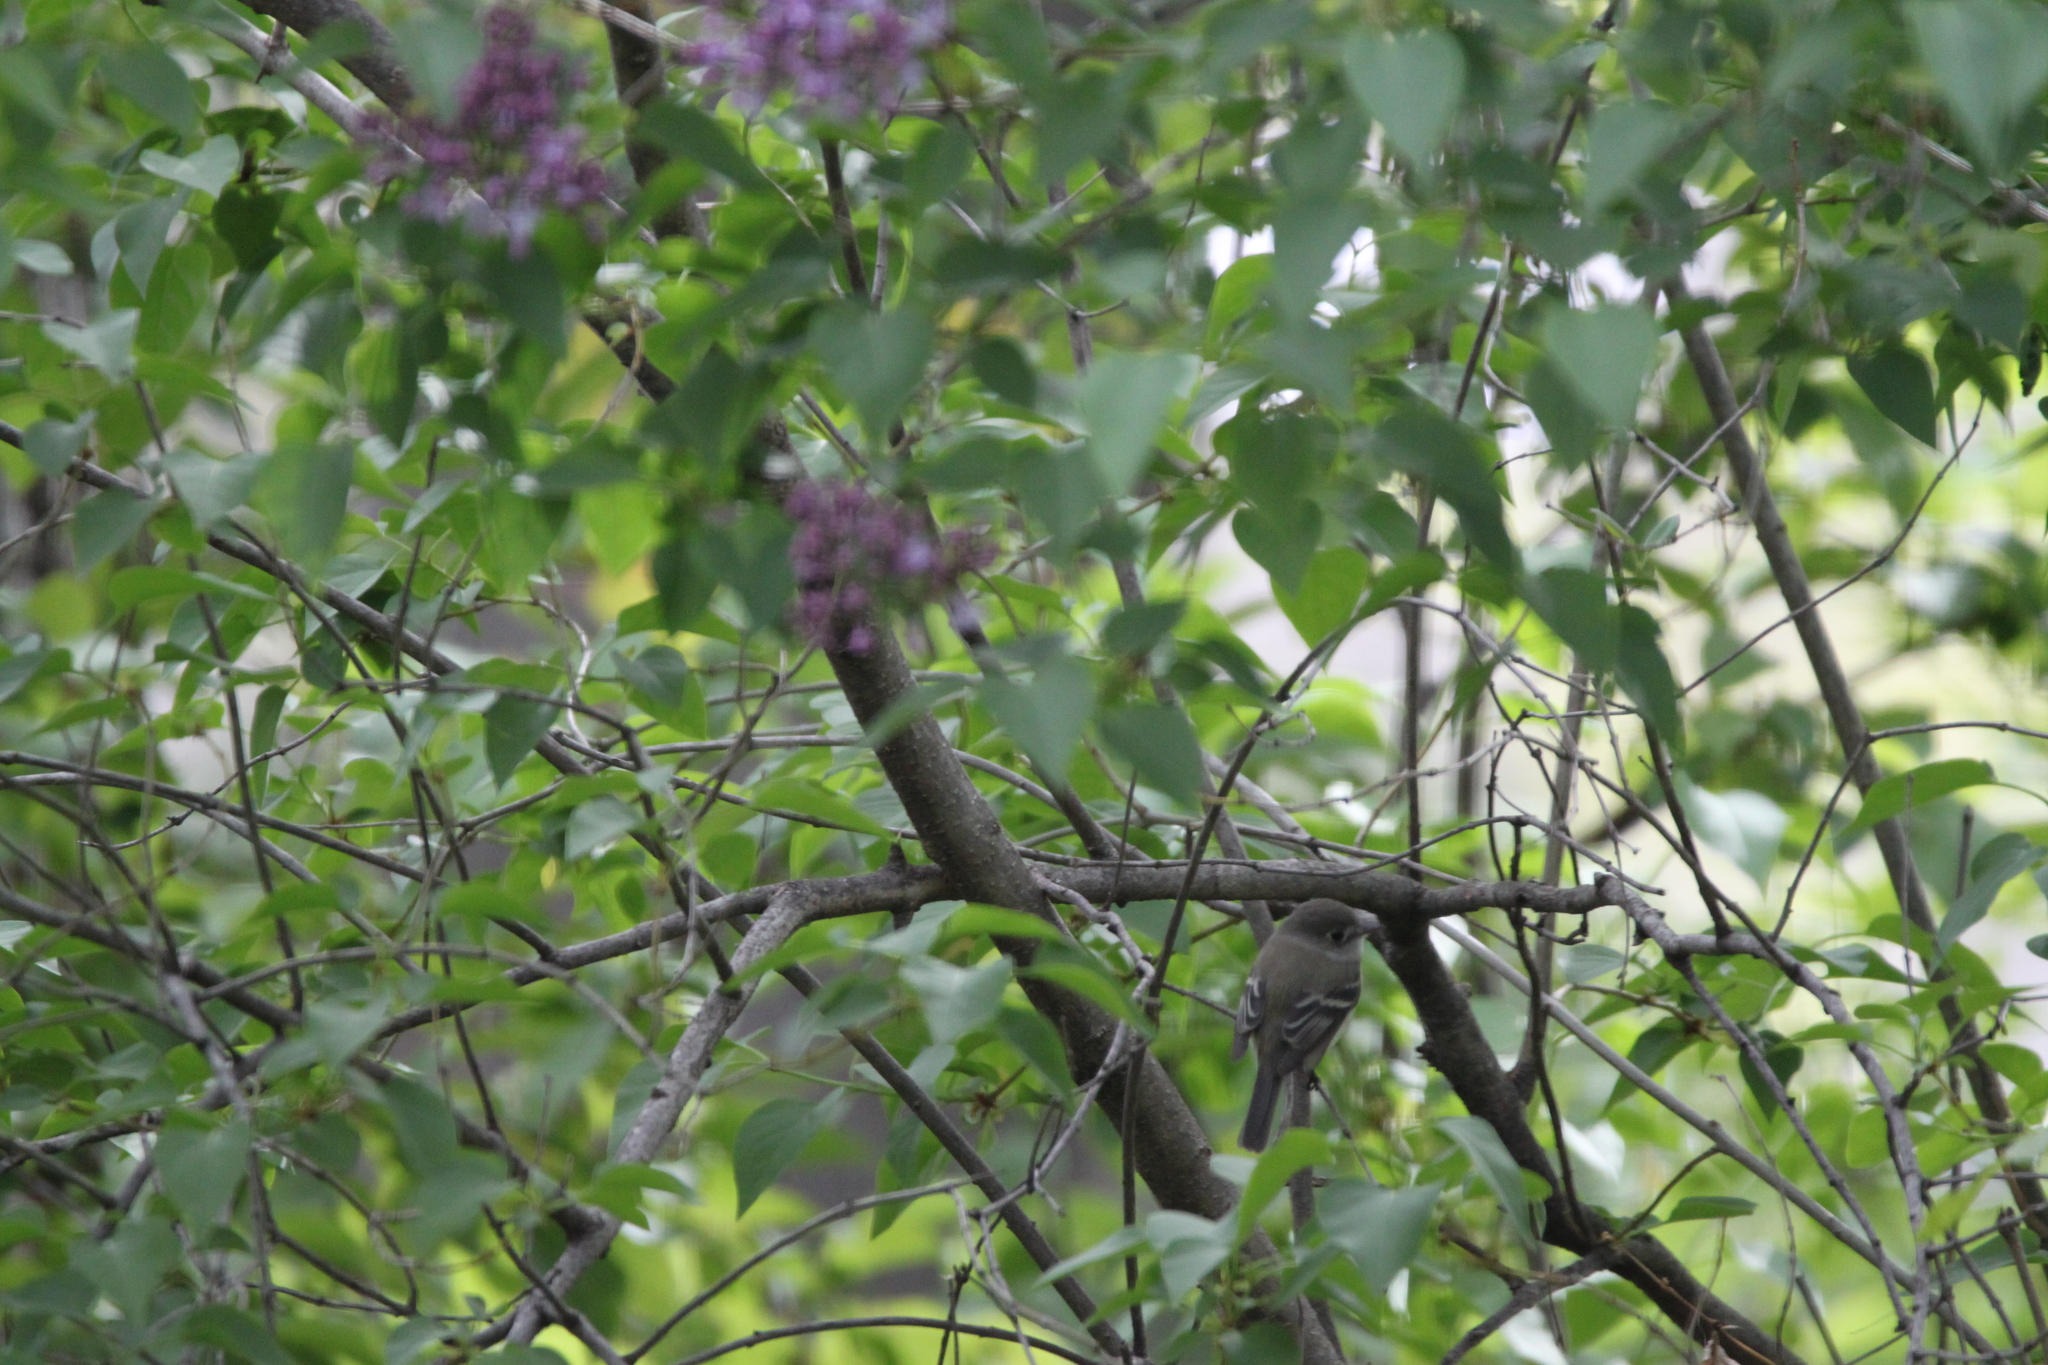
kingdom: Animalia
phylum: Chordata
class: Aves
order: Passeriformes
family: Tyrannidae
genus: Empidonax
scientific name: Empidonax minimus
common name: Least flycatcher
